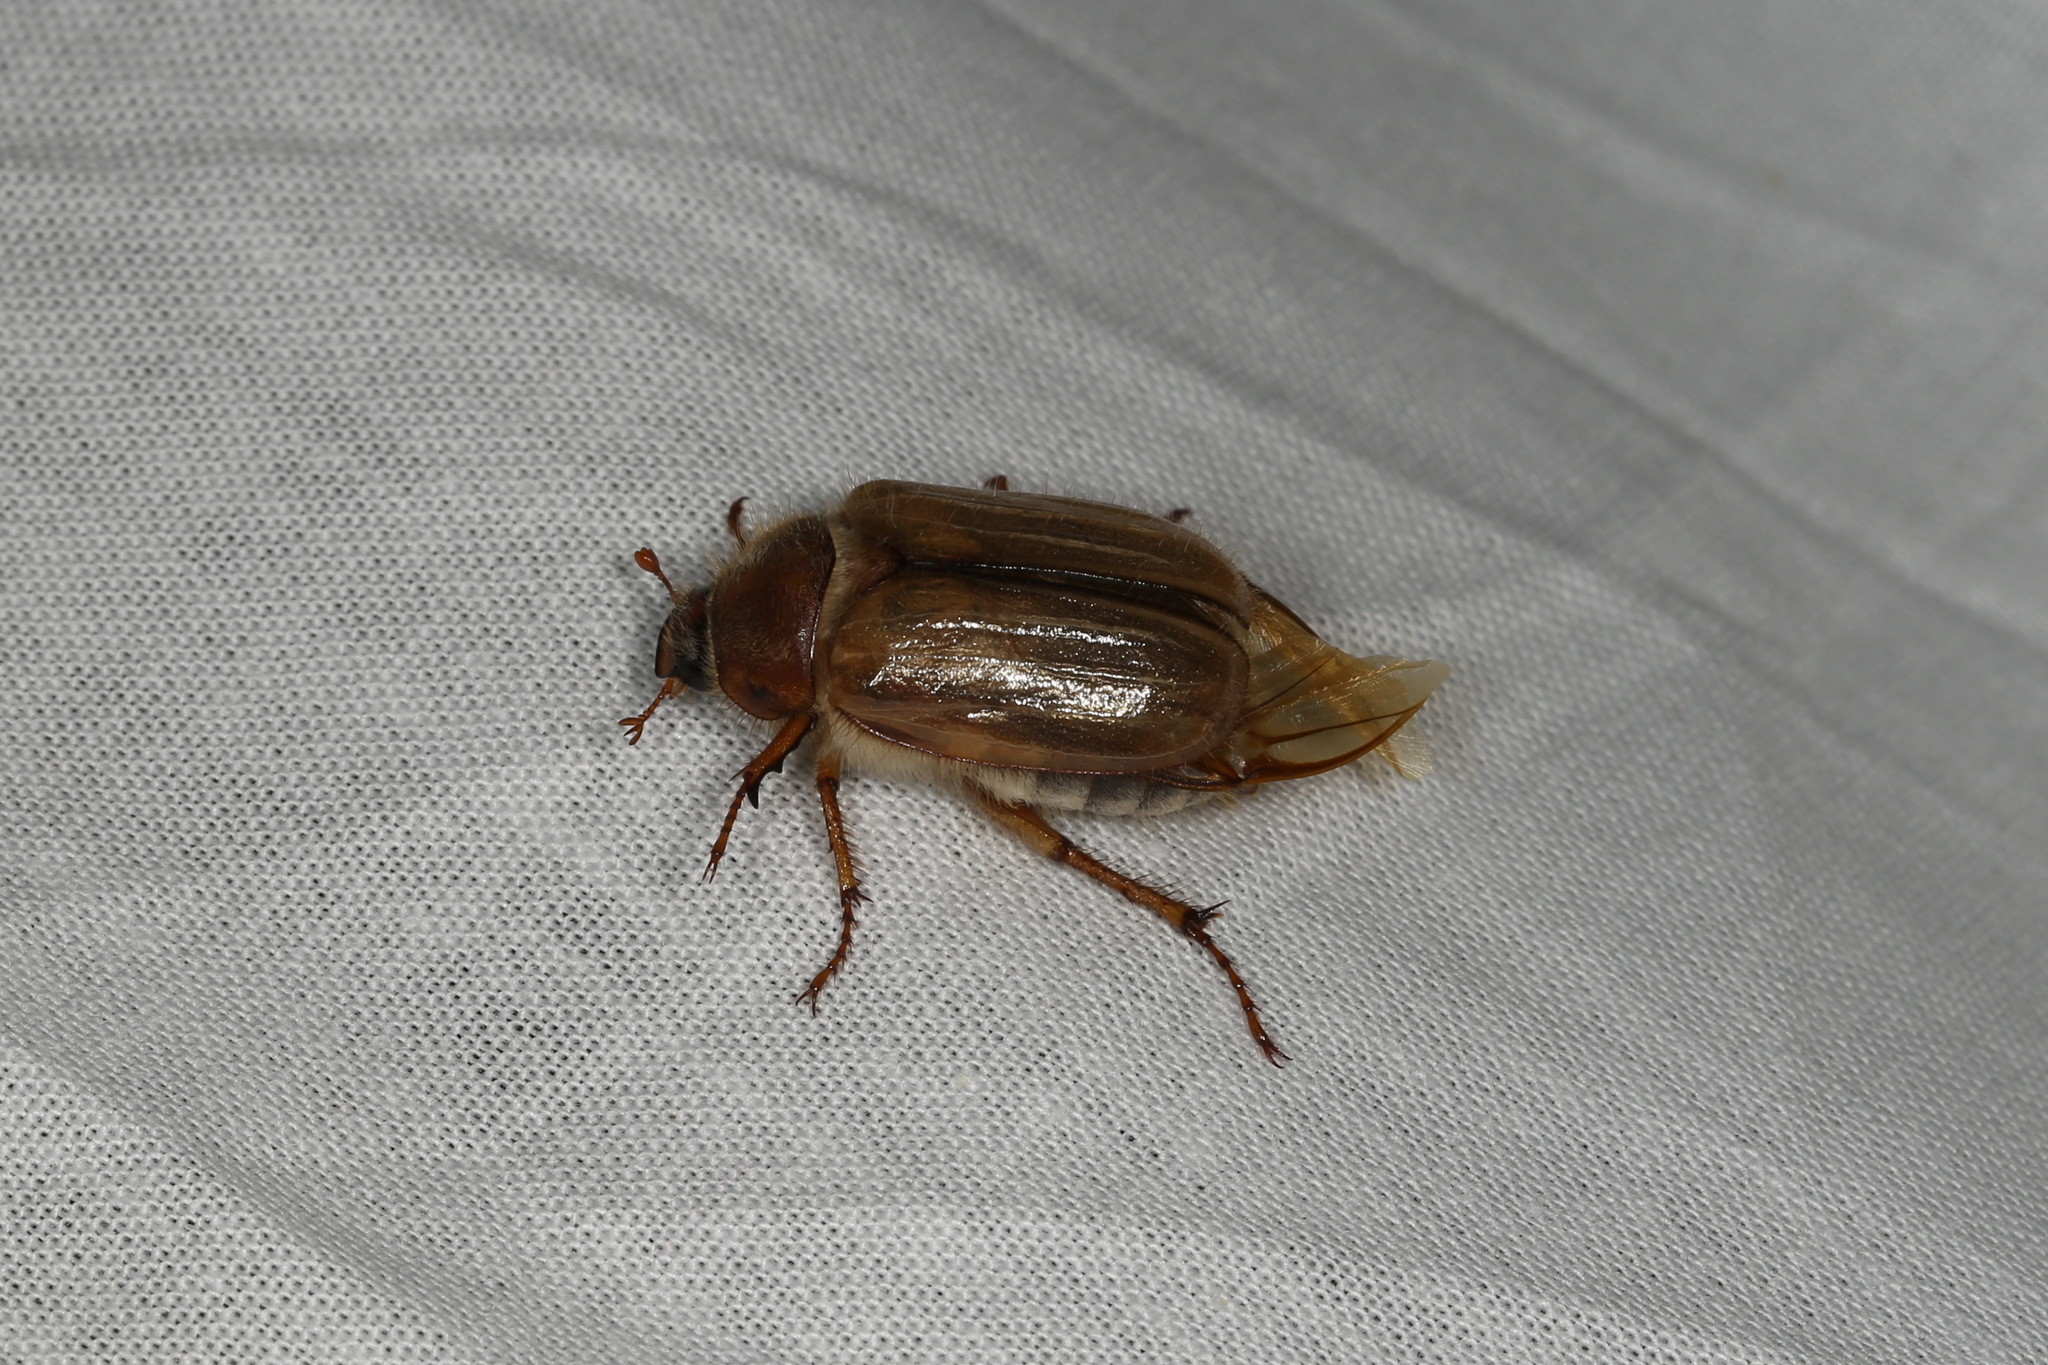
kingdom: Animalia
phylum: Arthropoda
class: Insecta
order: Coleoptera
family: Scarabaeidae
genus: Amphimallon
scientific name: Amphimallon solstitiale
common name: Summer chafer
